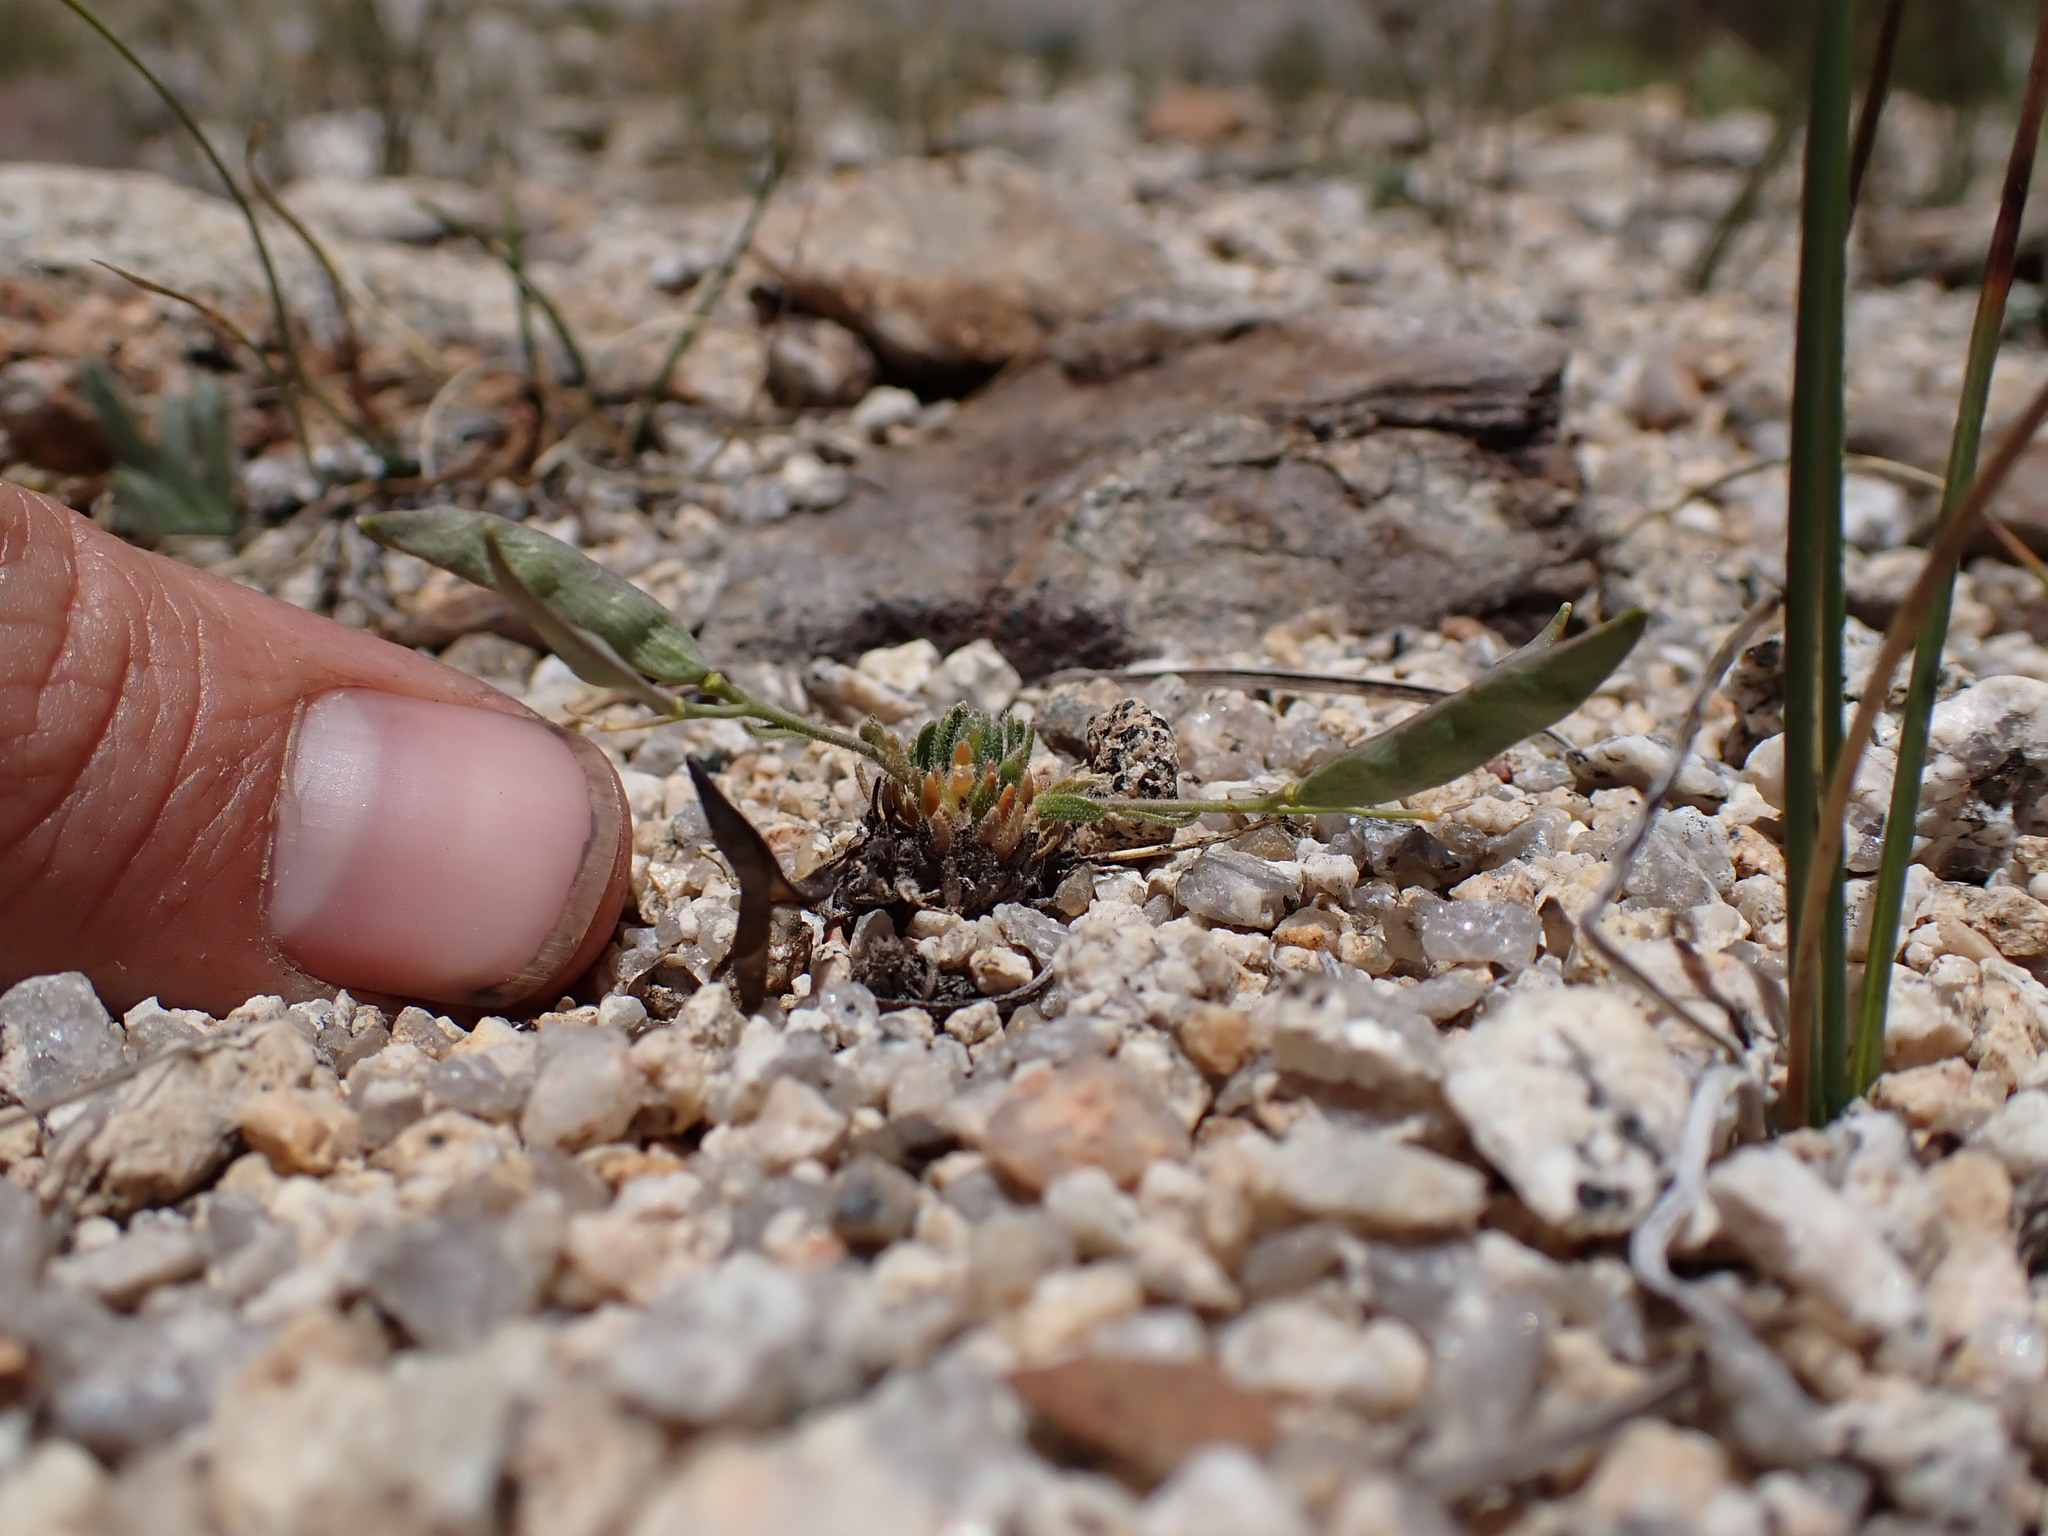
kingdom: Plantae
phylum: Tracheophyta
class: Magnoliopsida
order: Brassicales
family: Brassicaceae
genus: Boechera
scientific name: Boechera pygmaea
